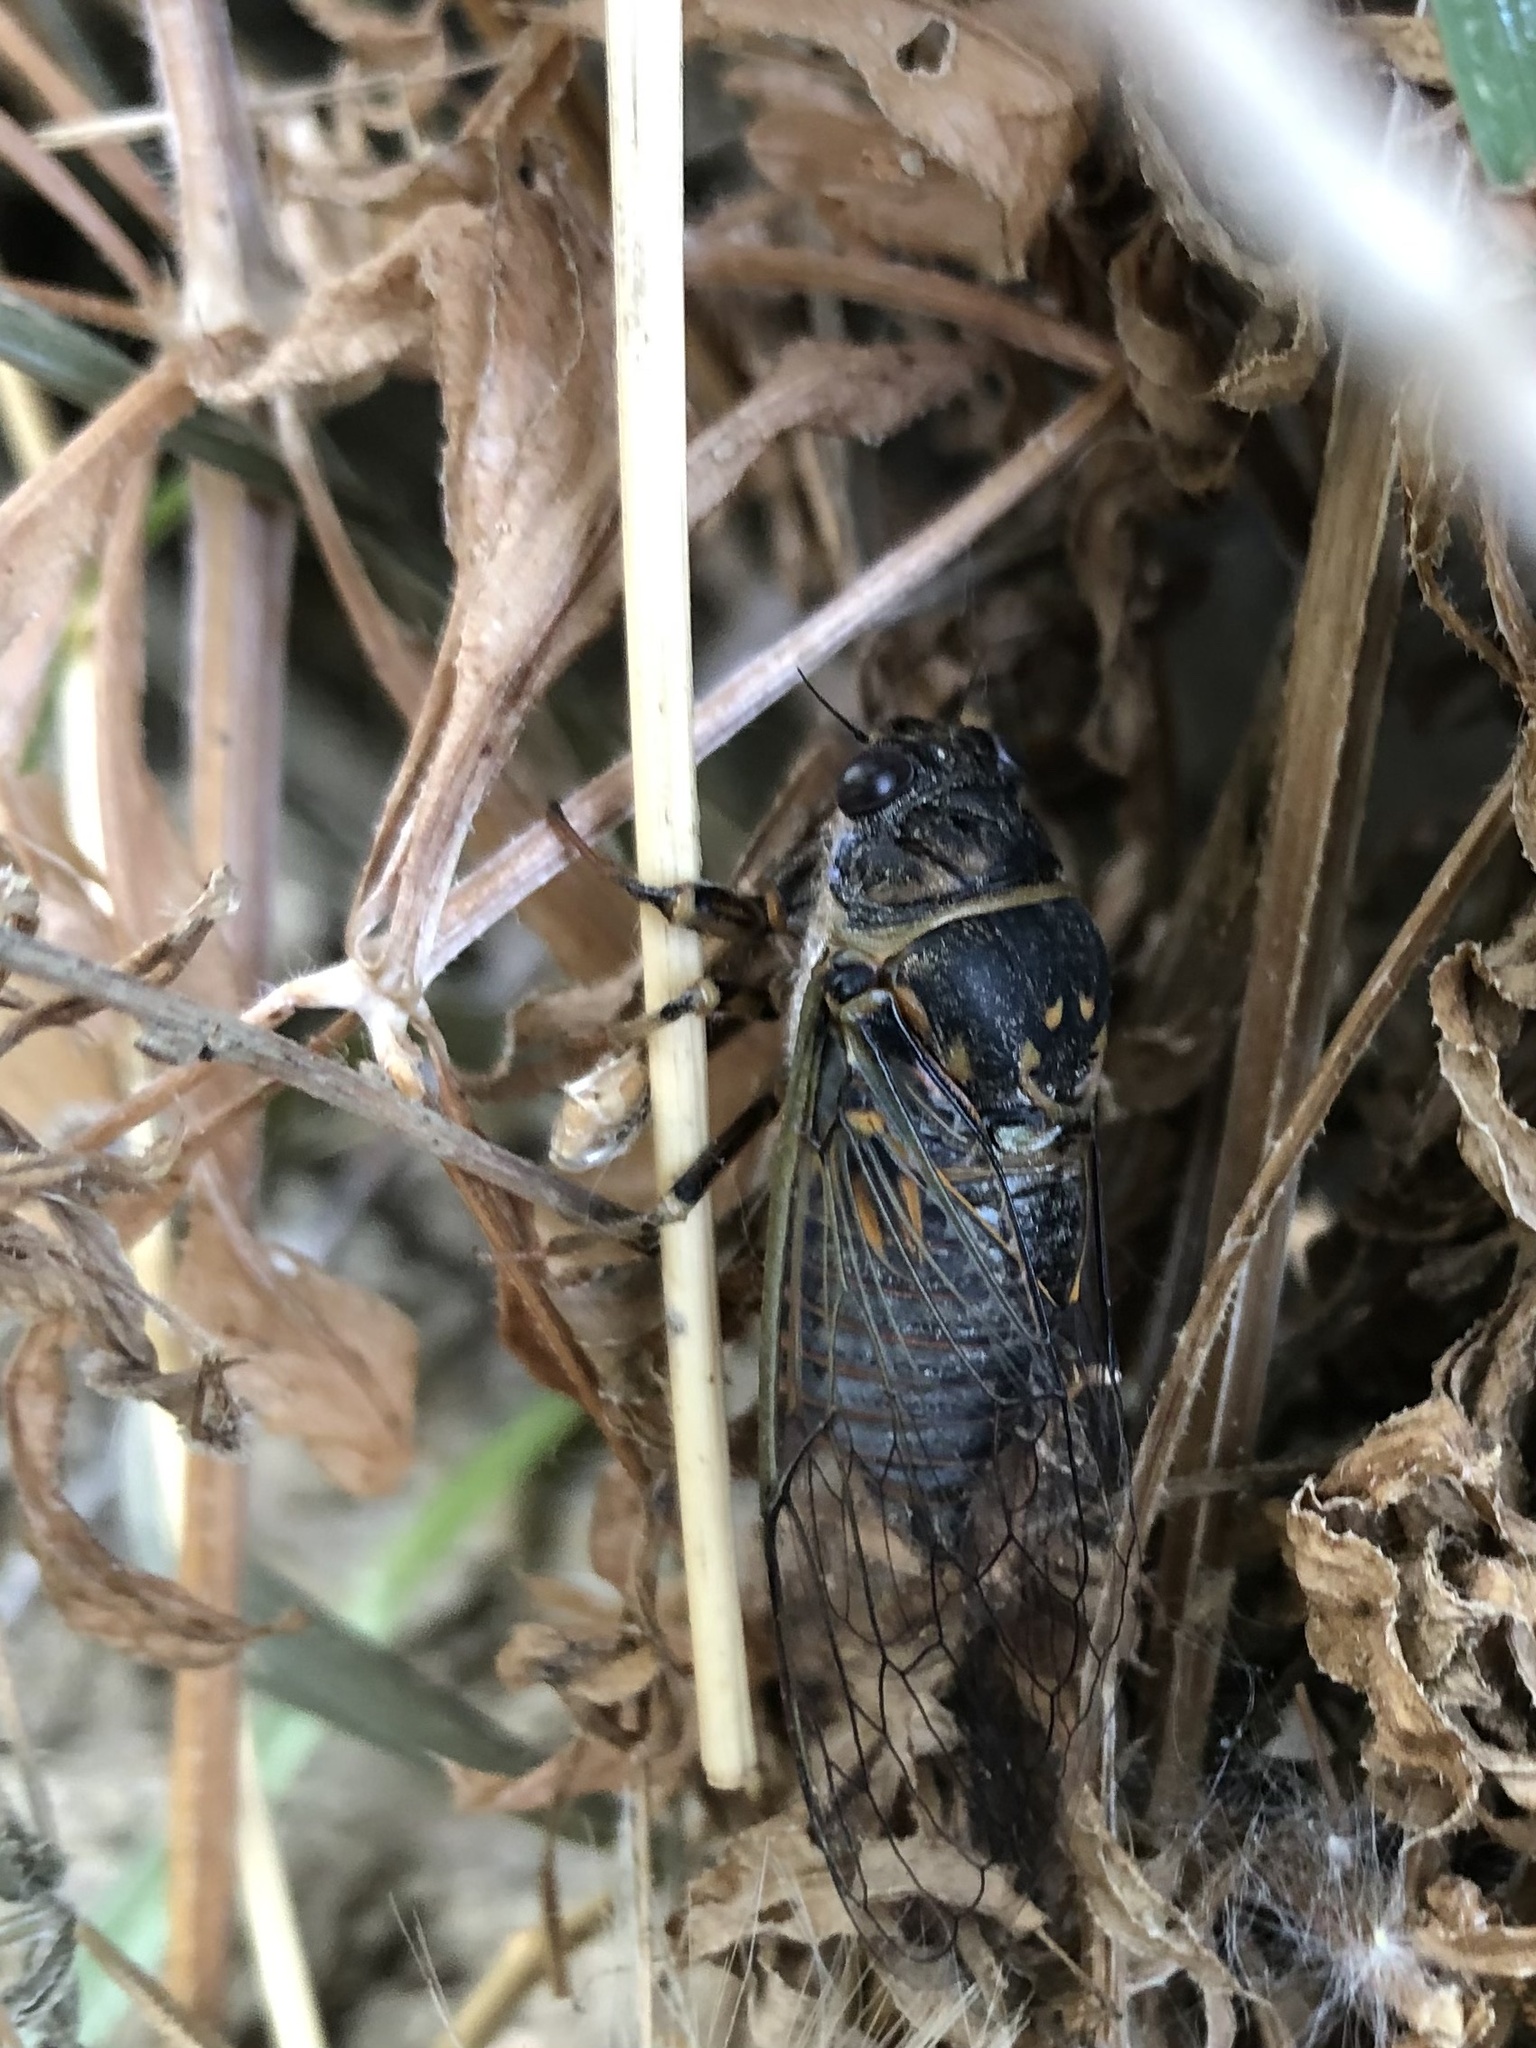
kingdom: Animalia
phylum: Arthropoda
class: Insecta
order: Hemiptera
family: Cicadidae
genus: Okanagana
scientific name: Okanagana arboraria
